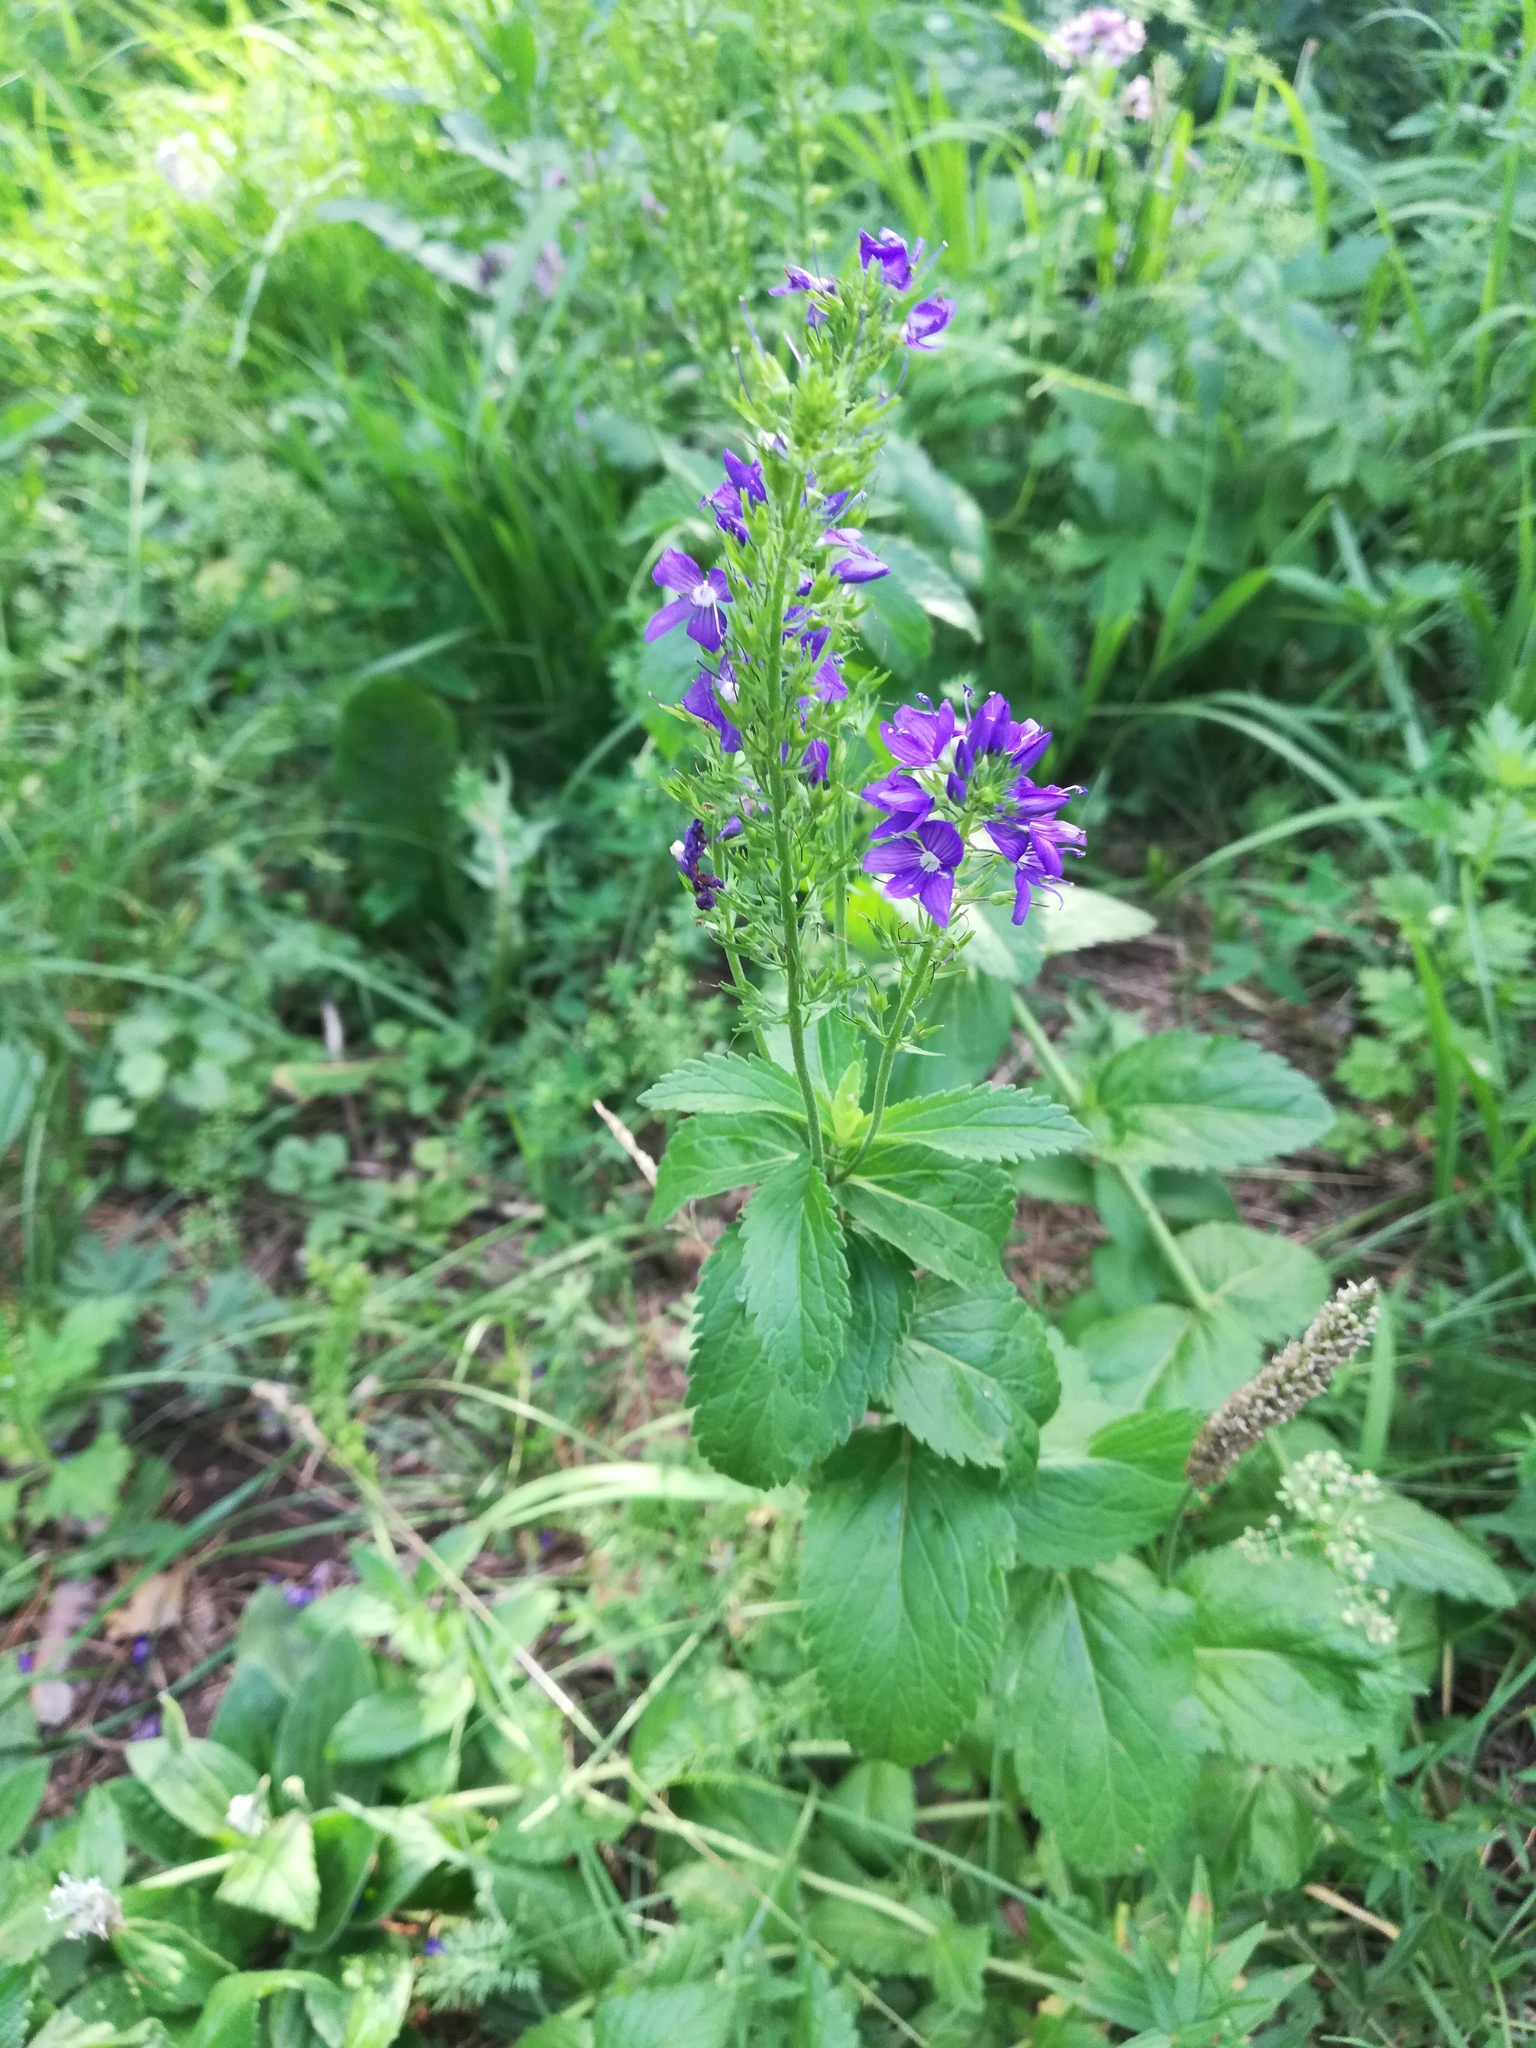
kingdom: Plantae
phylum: Tracheophyta
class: Magnoliopsida
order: Lamiales
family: Plantaginaceae
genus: Veronica
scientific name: Veronica teucrium
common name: Large speedwell
